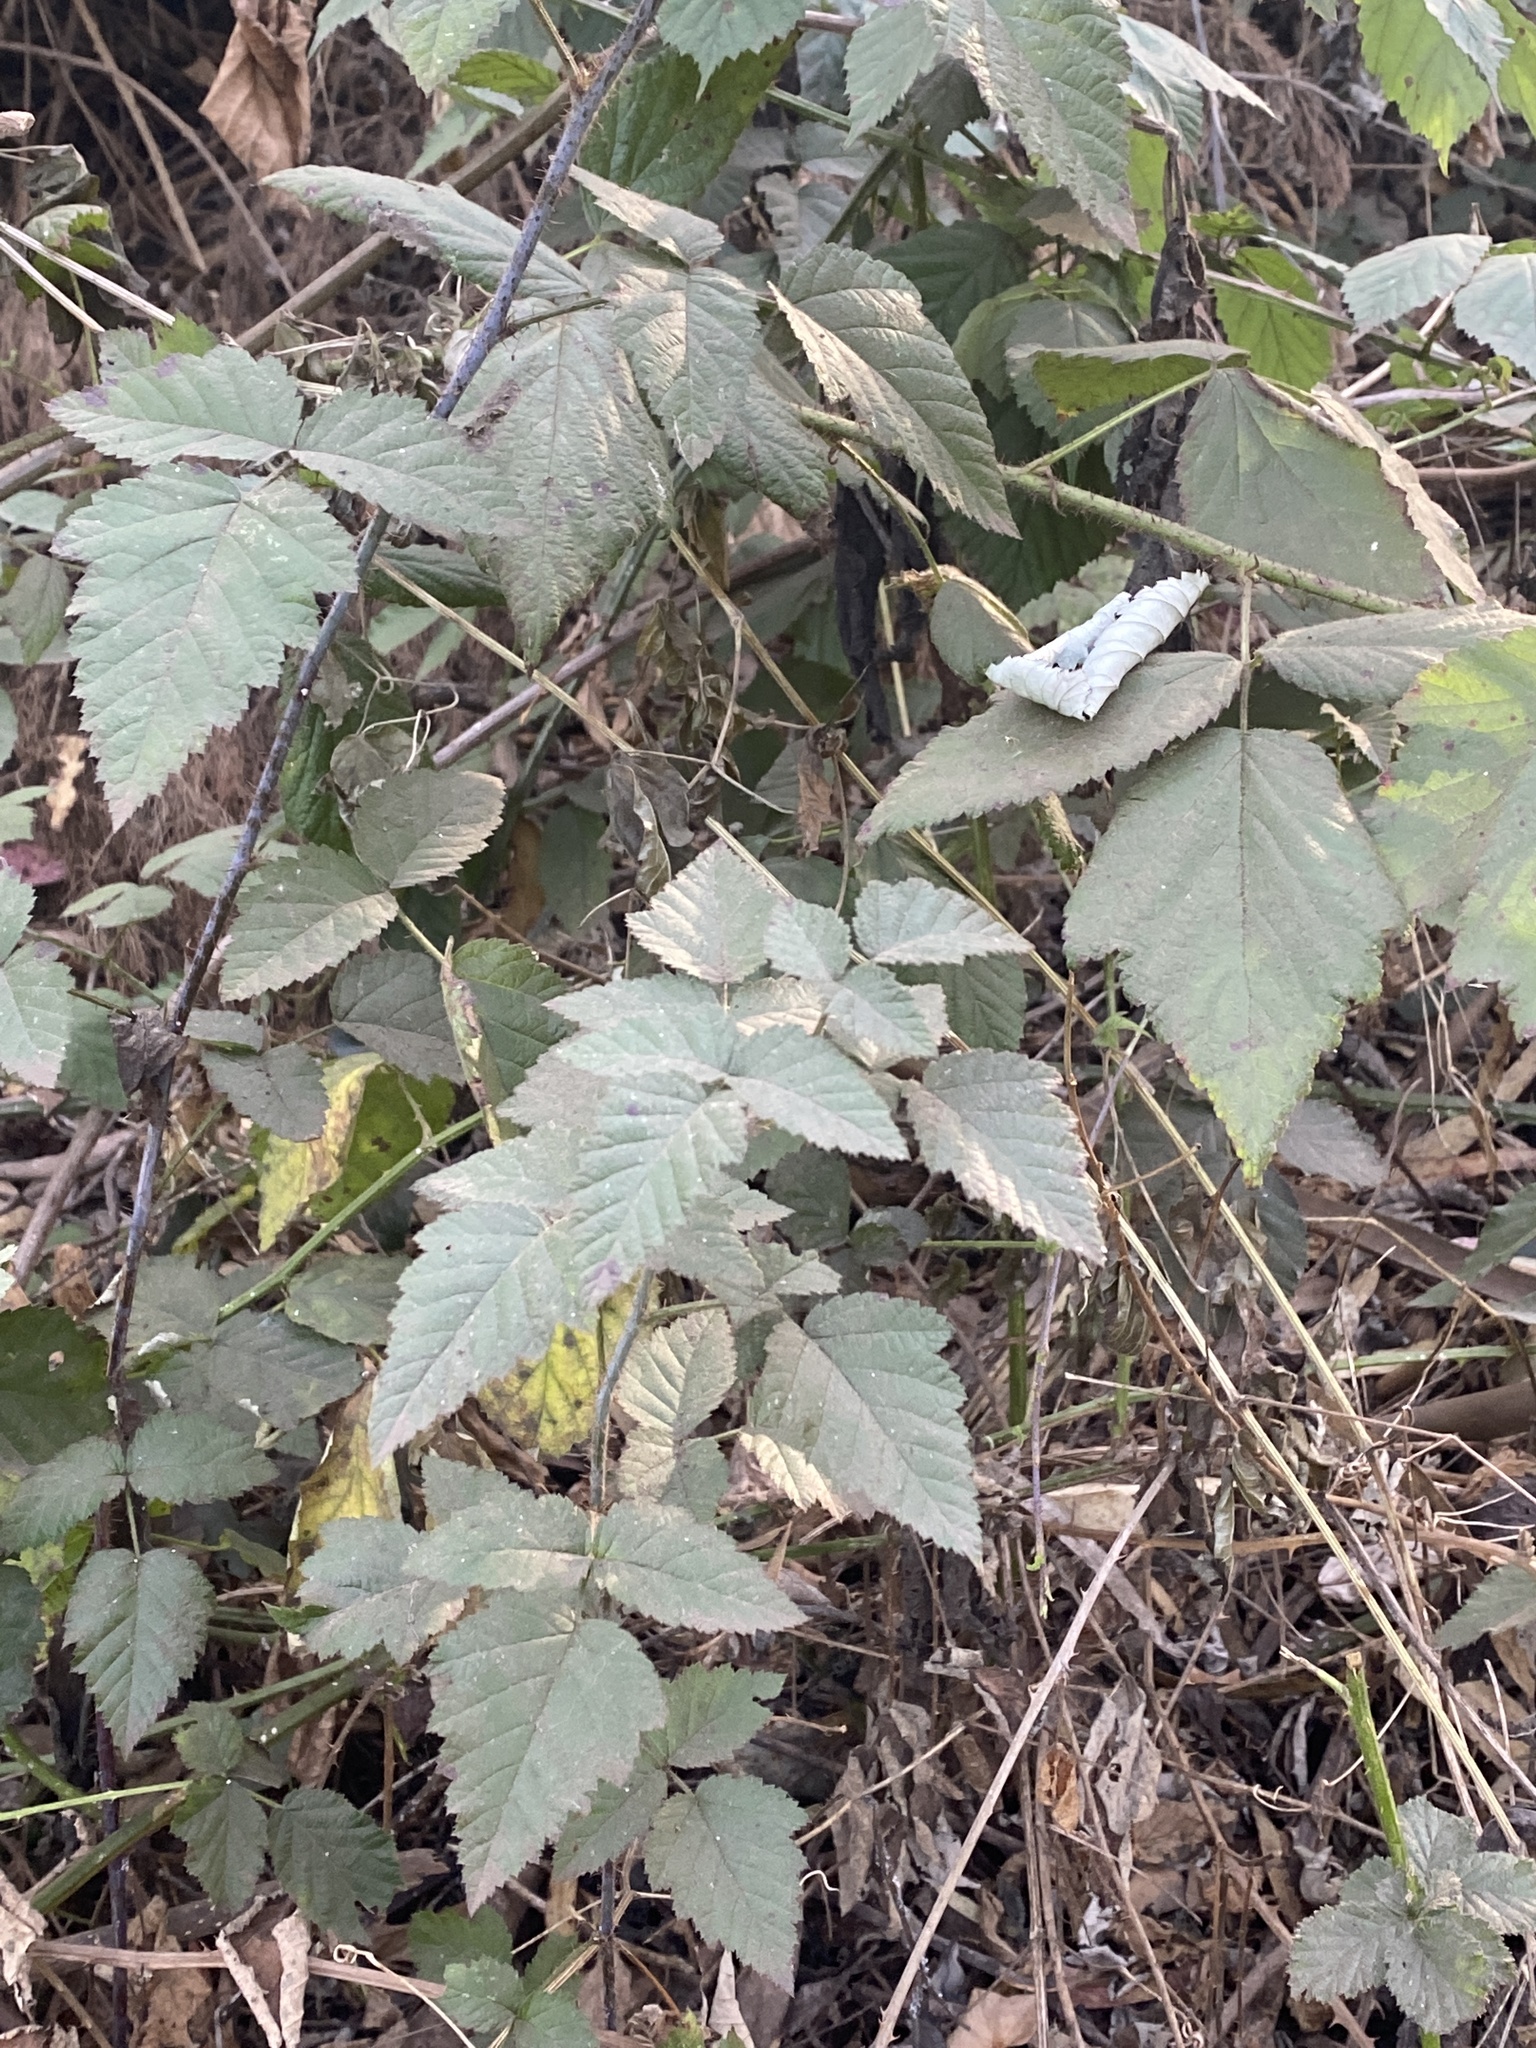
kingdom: Plantae
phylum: Tracheophyta
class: Magnoliopsida
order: Rosales
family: Rosaceae
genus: Rubus
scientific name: Rubus ursinus
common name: Pacific blackberry
